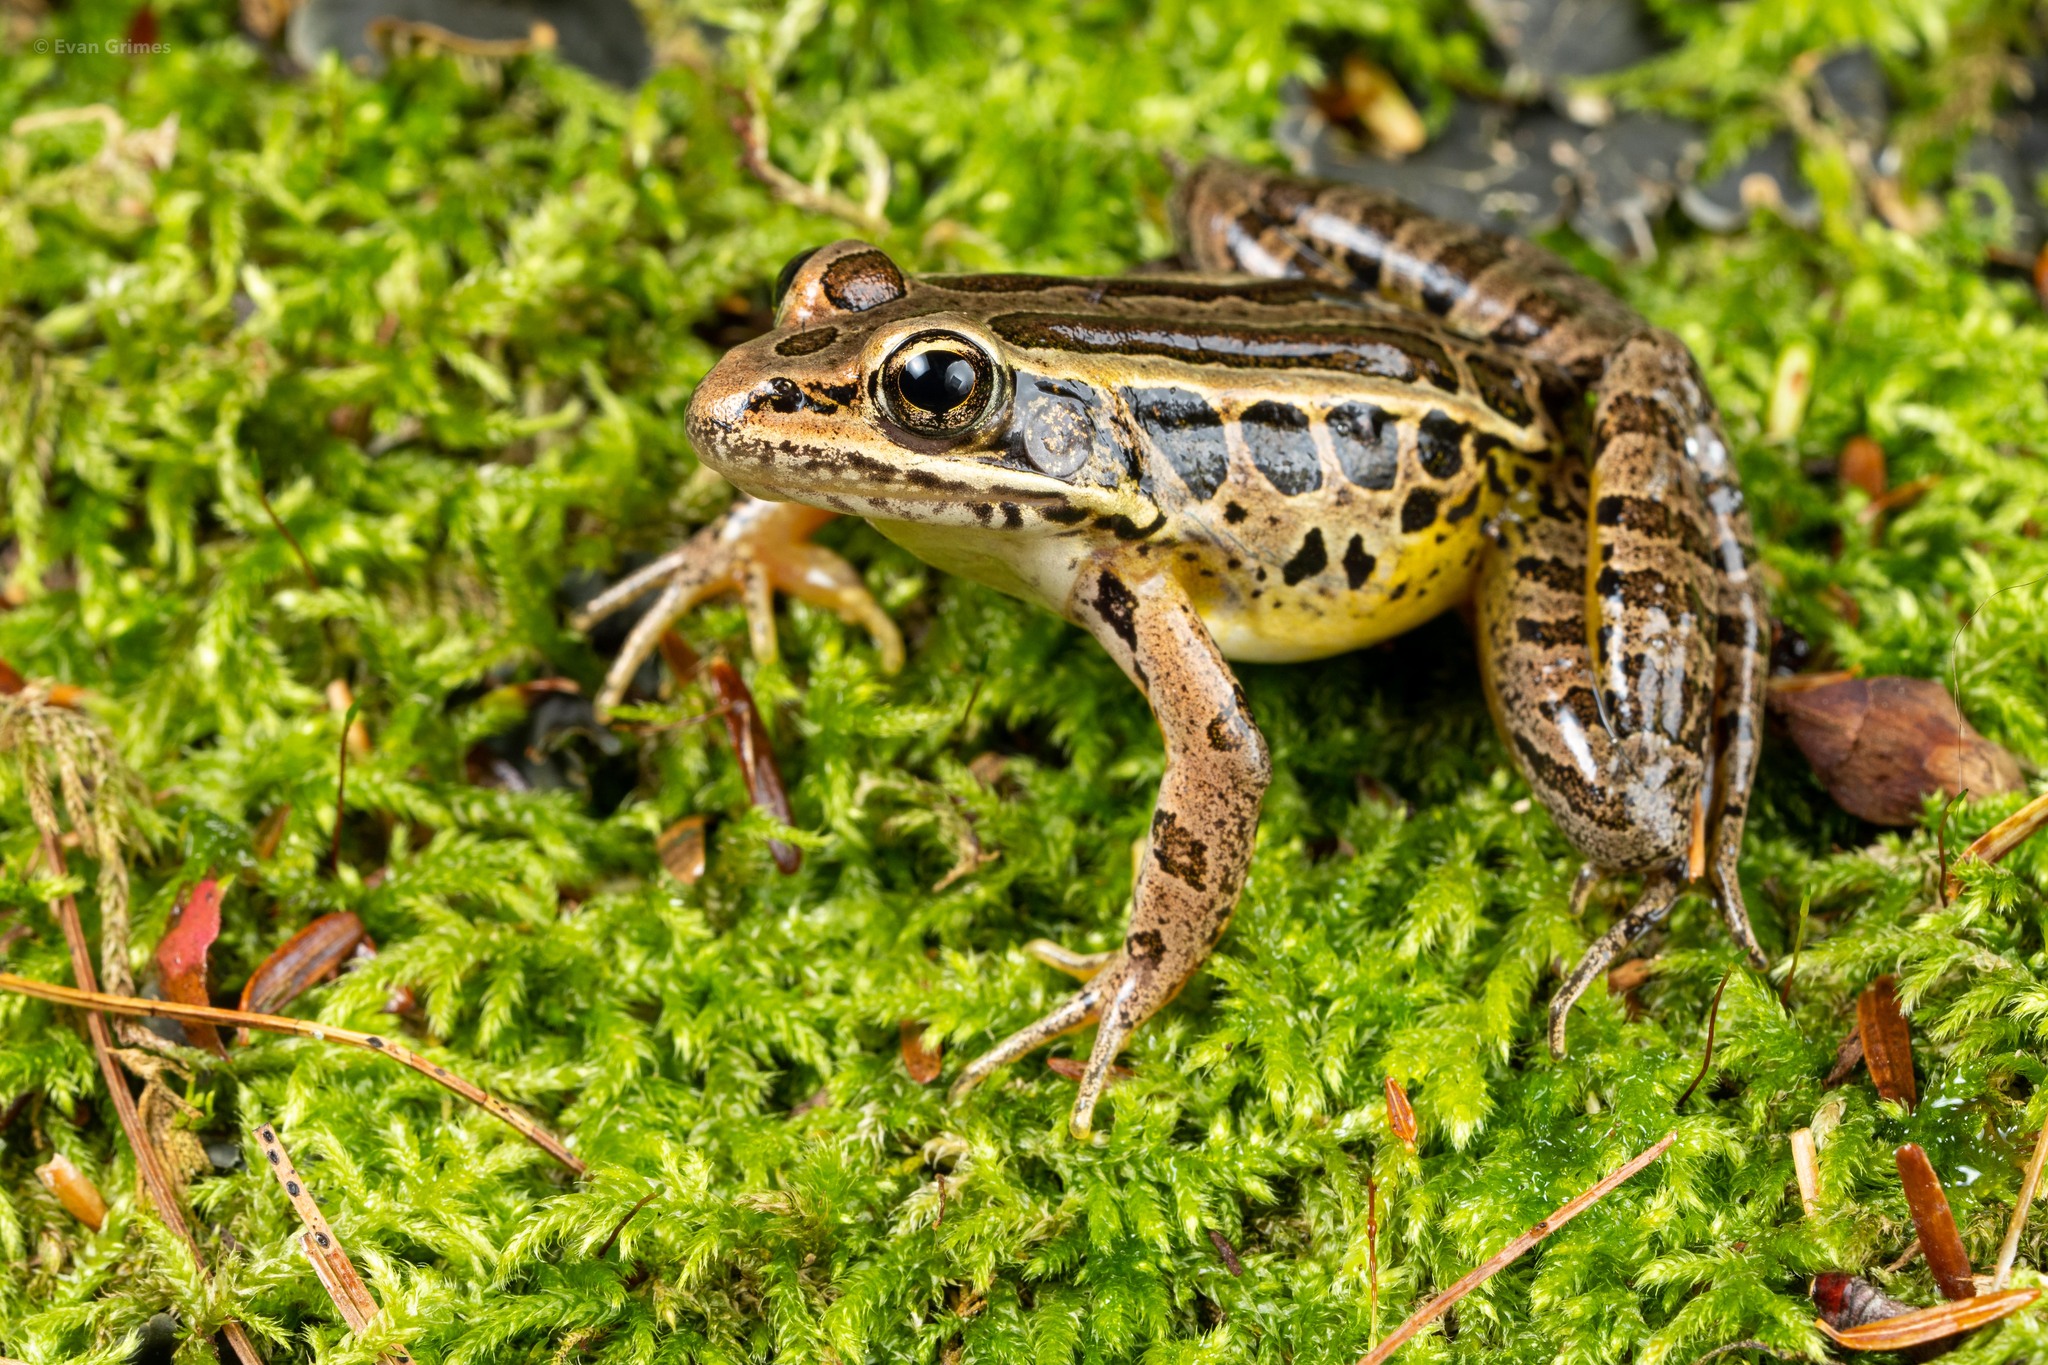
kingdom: Animalia
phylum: Chordata
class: Amphibia
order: Anura
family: Ranidae
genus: Lithobates
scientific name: Lithobates palustris
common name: Pickerel frog
